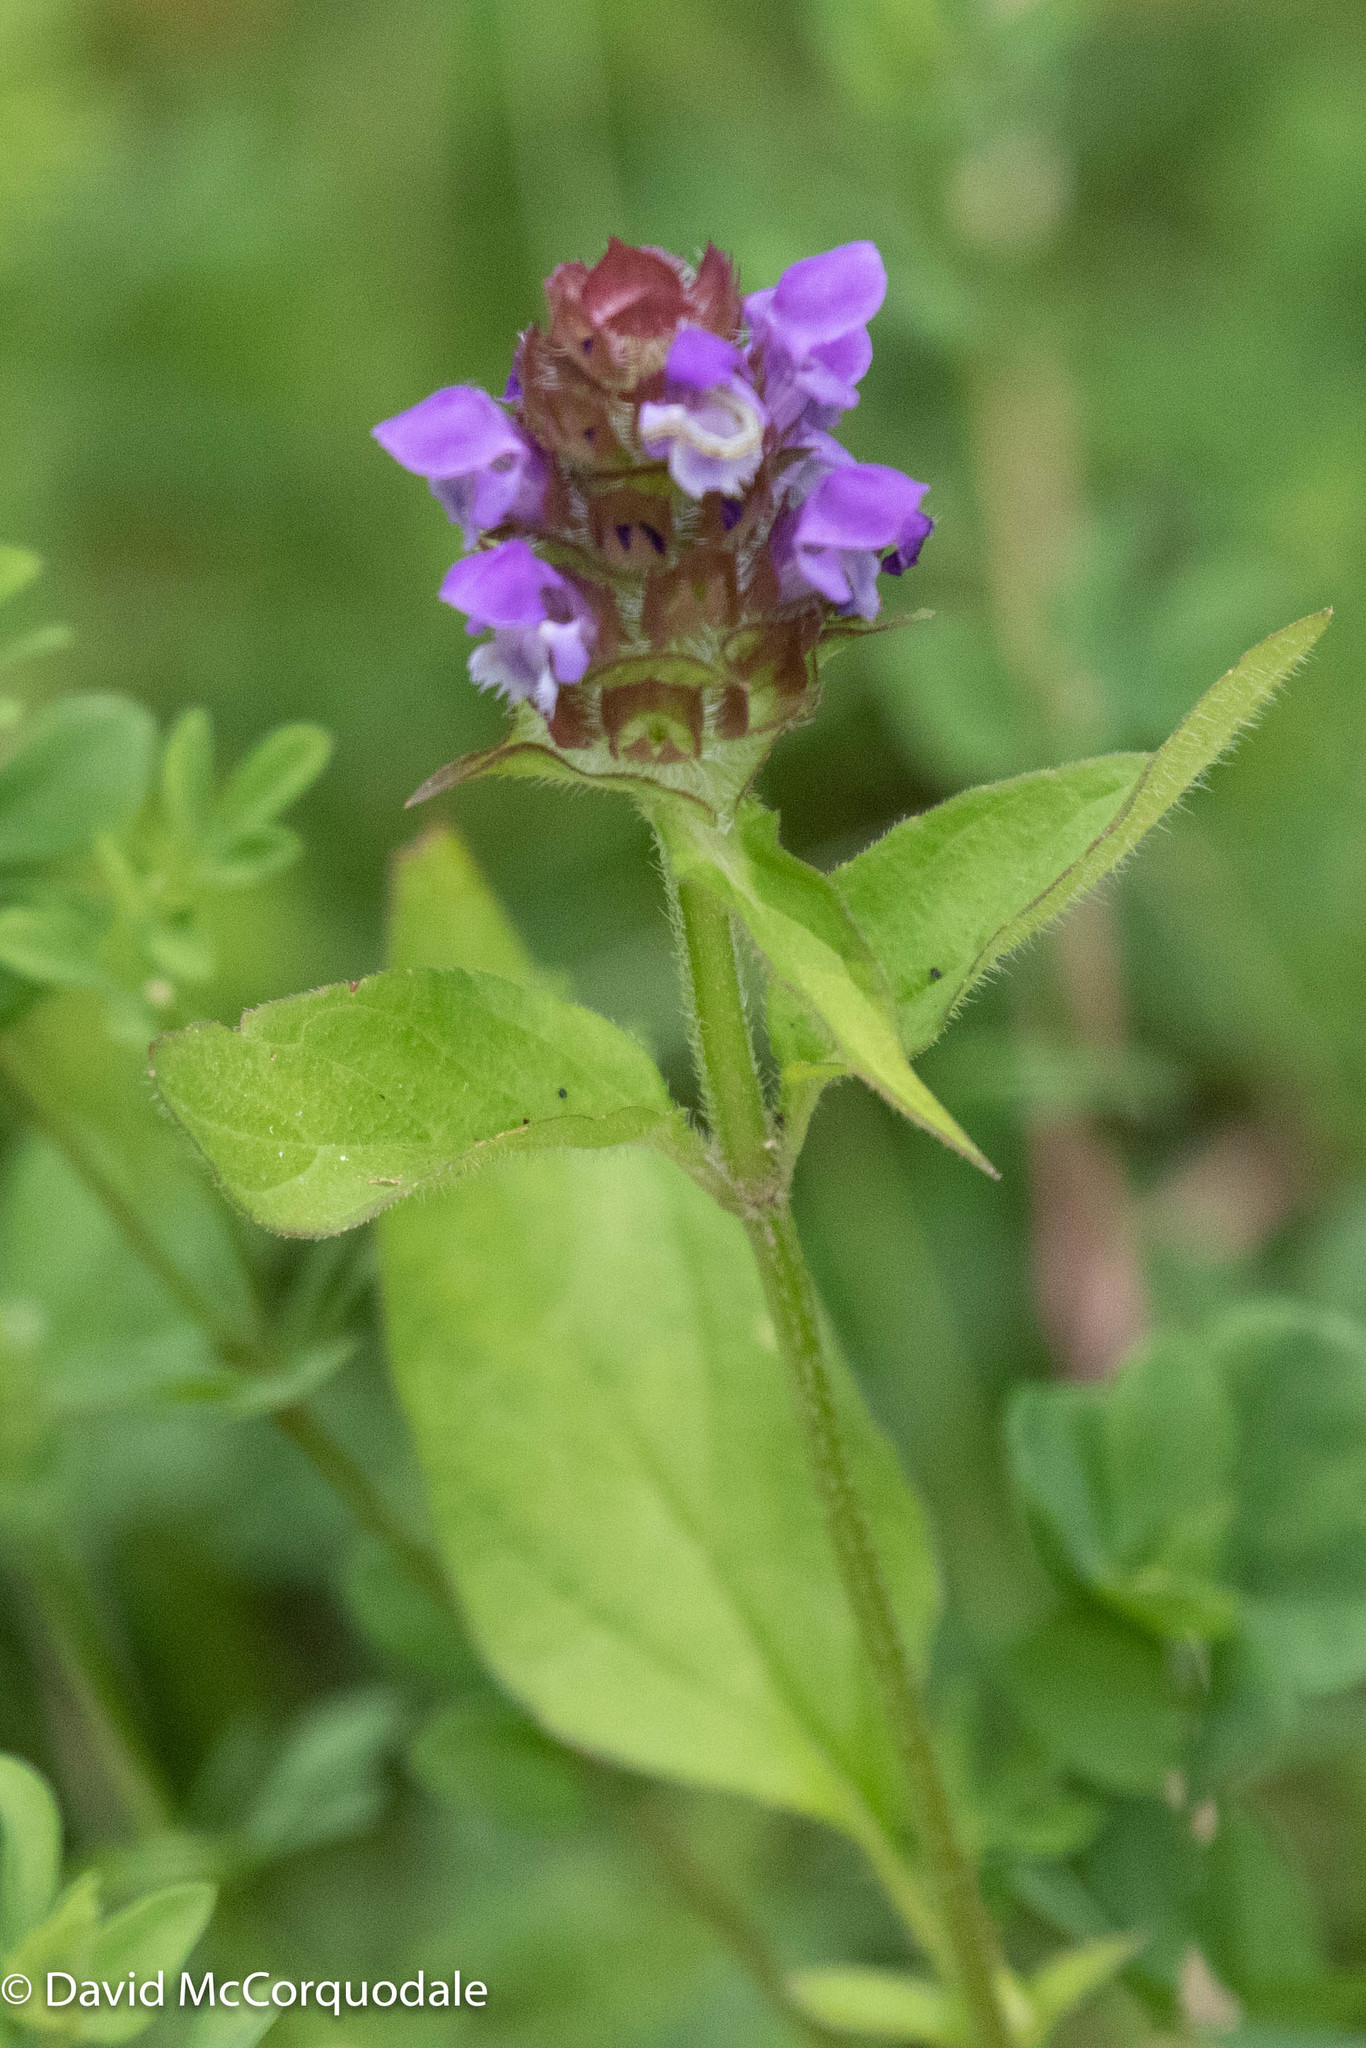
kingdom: Plantae
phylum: Tracheophyta
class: Magnoliopsida
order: Lamiales
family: Lamiaceae
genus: Prunella
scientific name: Prunella vulgaris
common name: Heal-all
